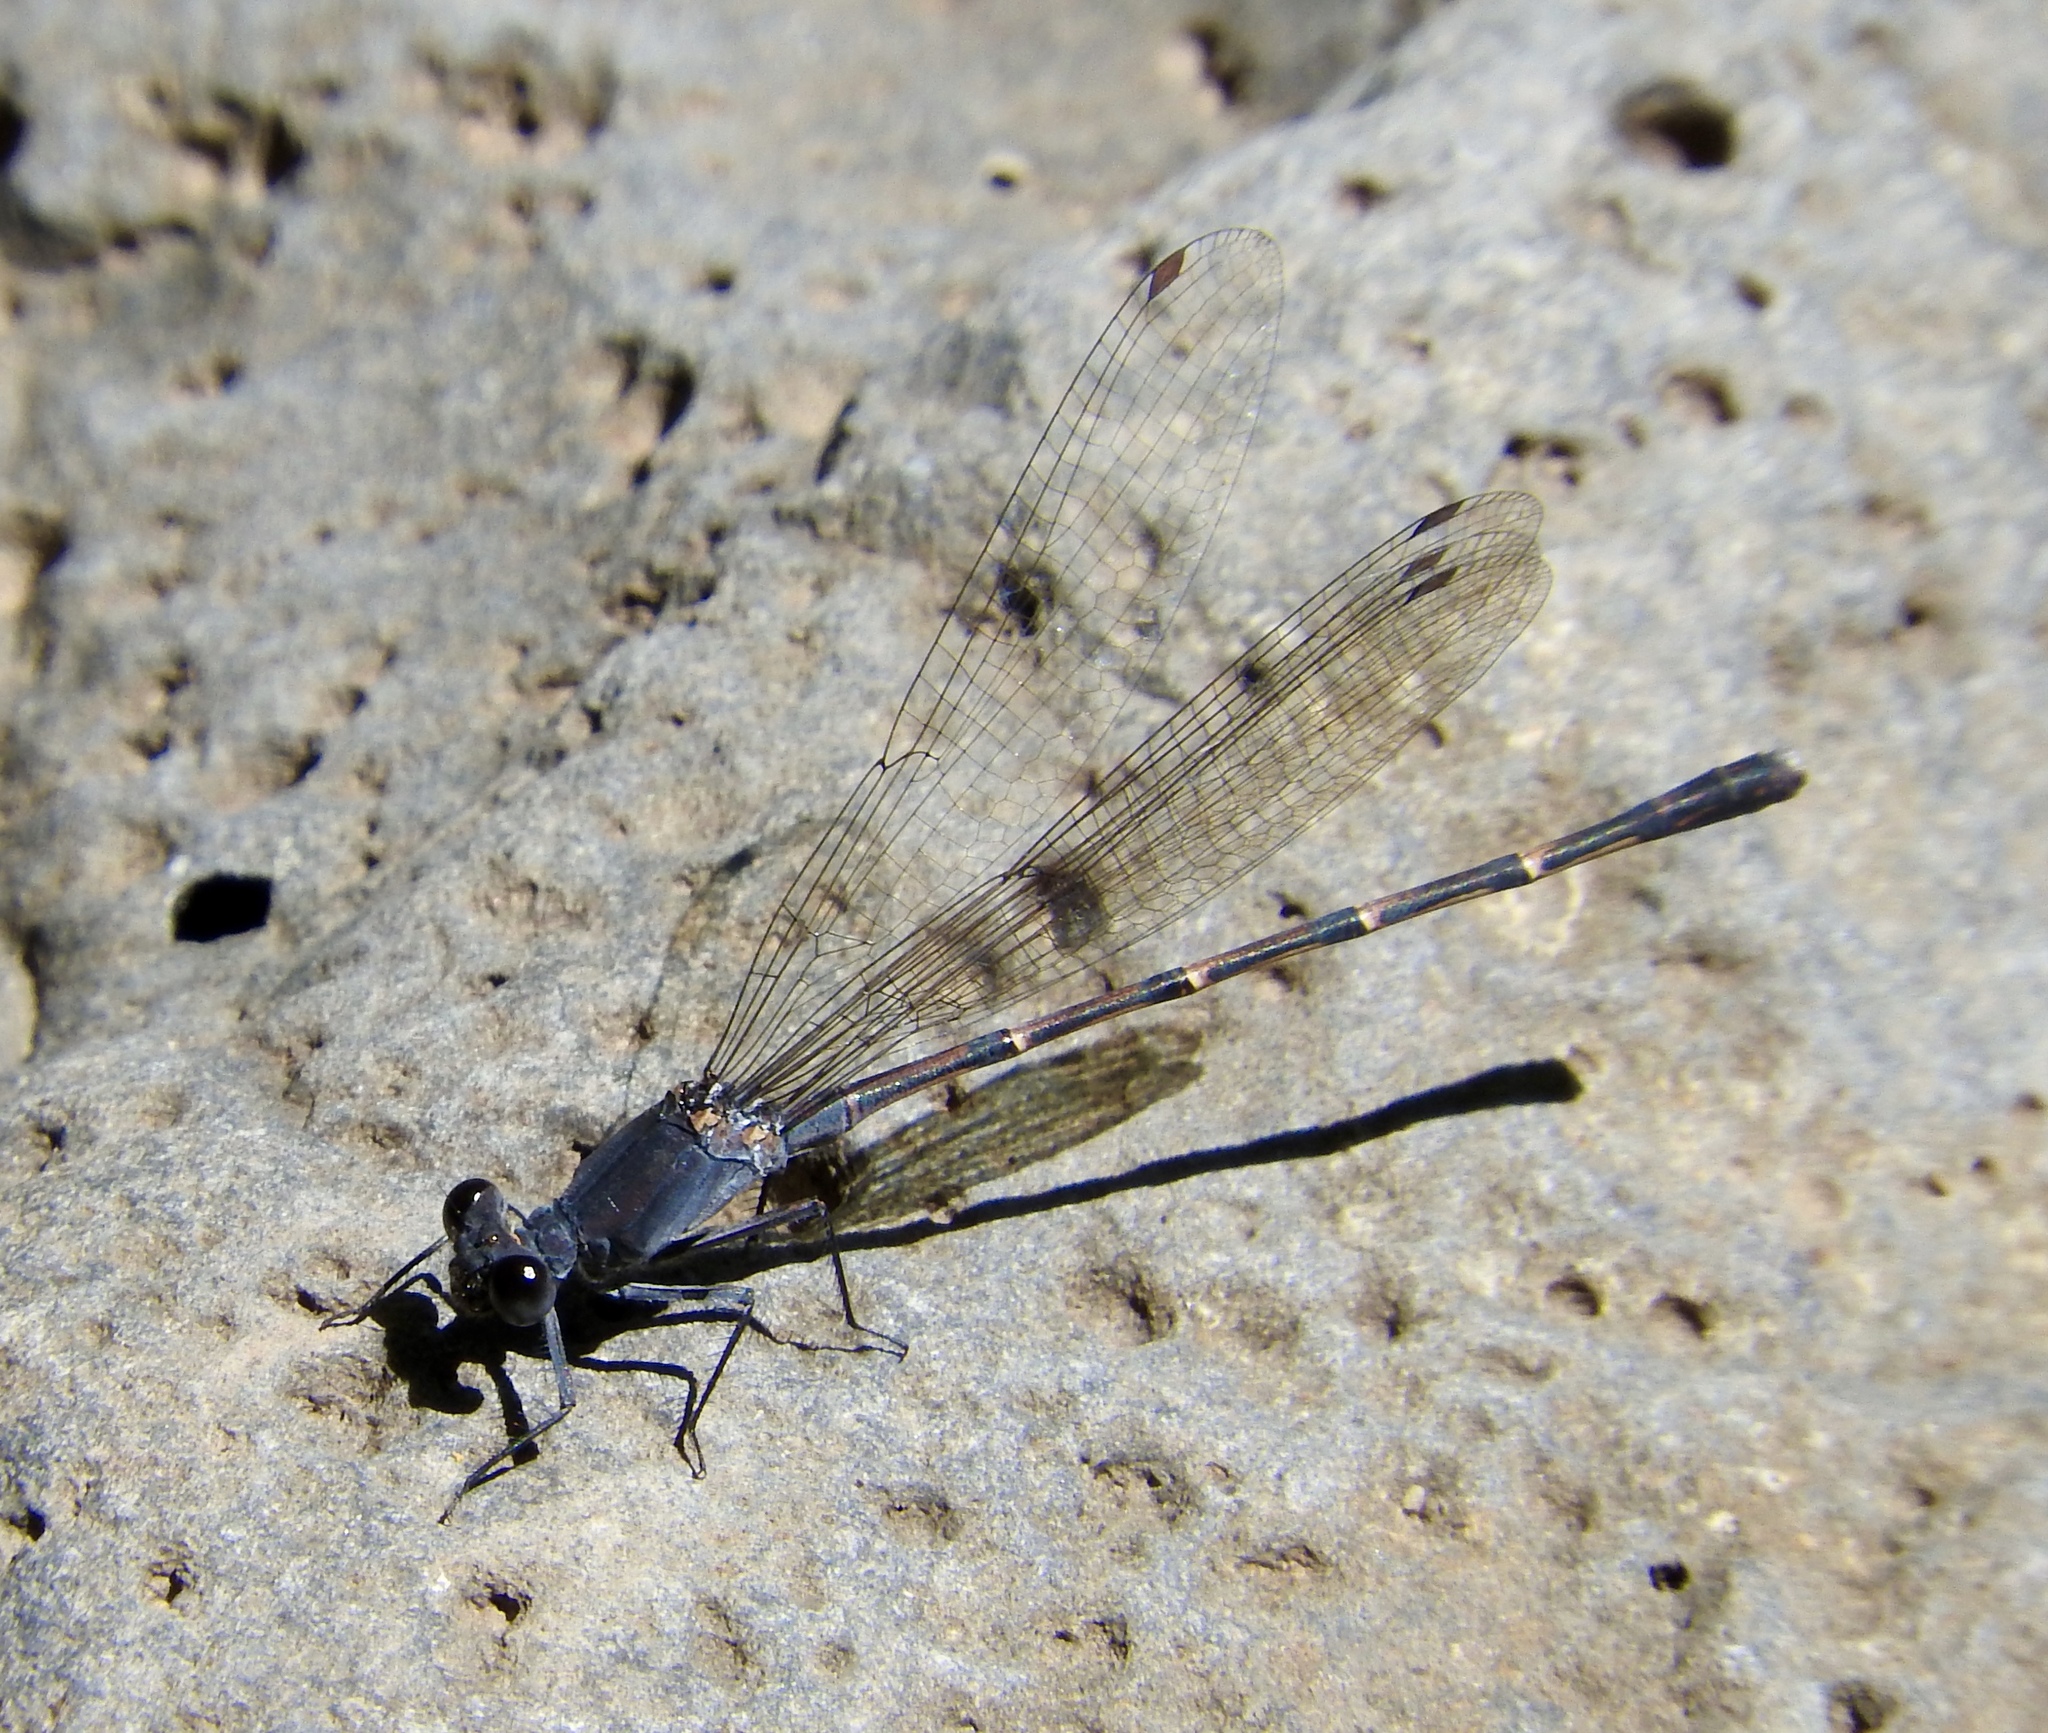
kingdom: Animalia
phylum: Arthropoda
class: Insecta
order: Odonata
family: Coenagrionidae
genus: Argia
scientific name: Argia lugens
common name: Sooty dancer
